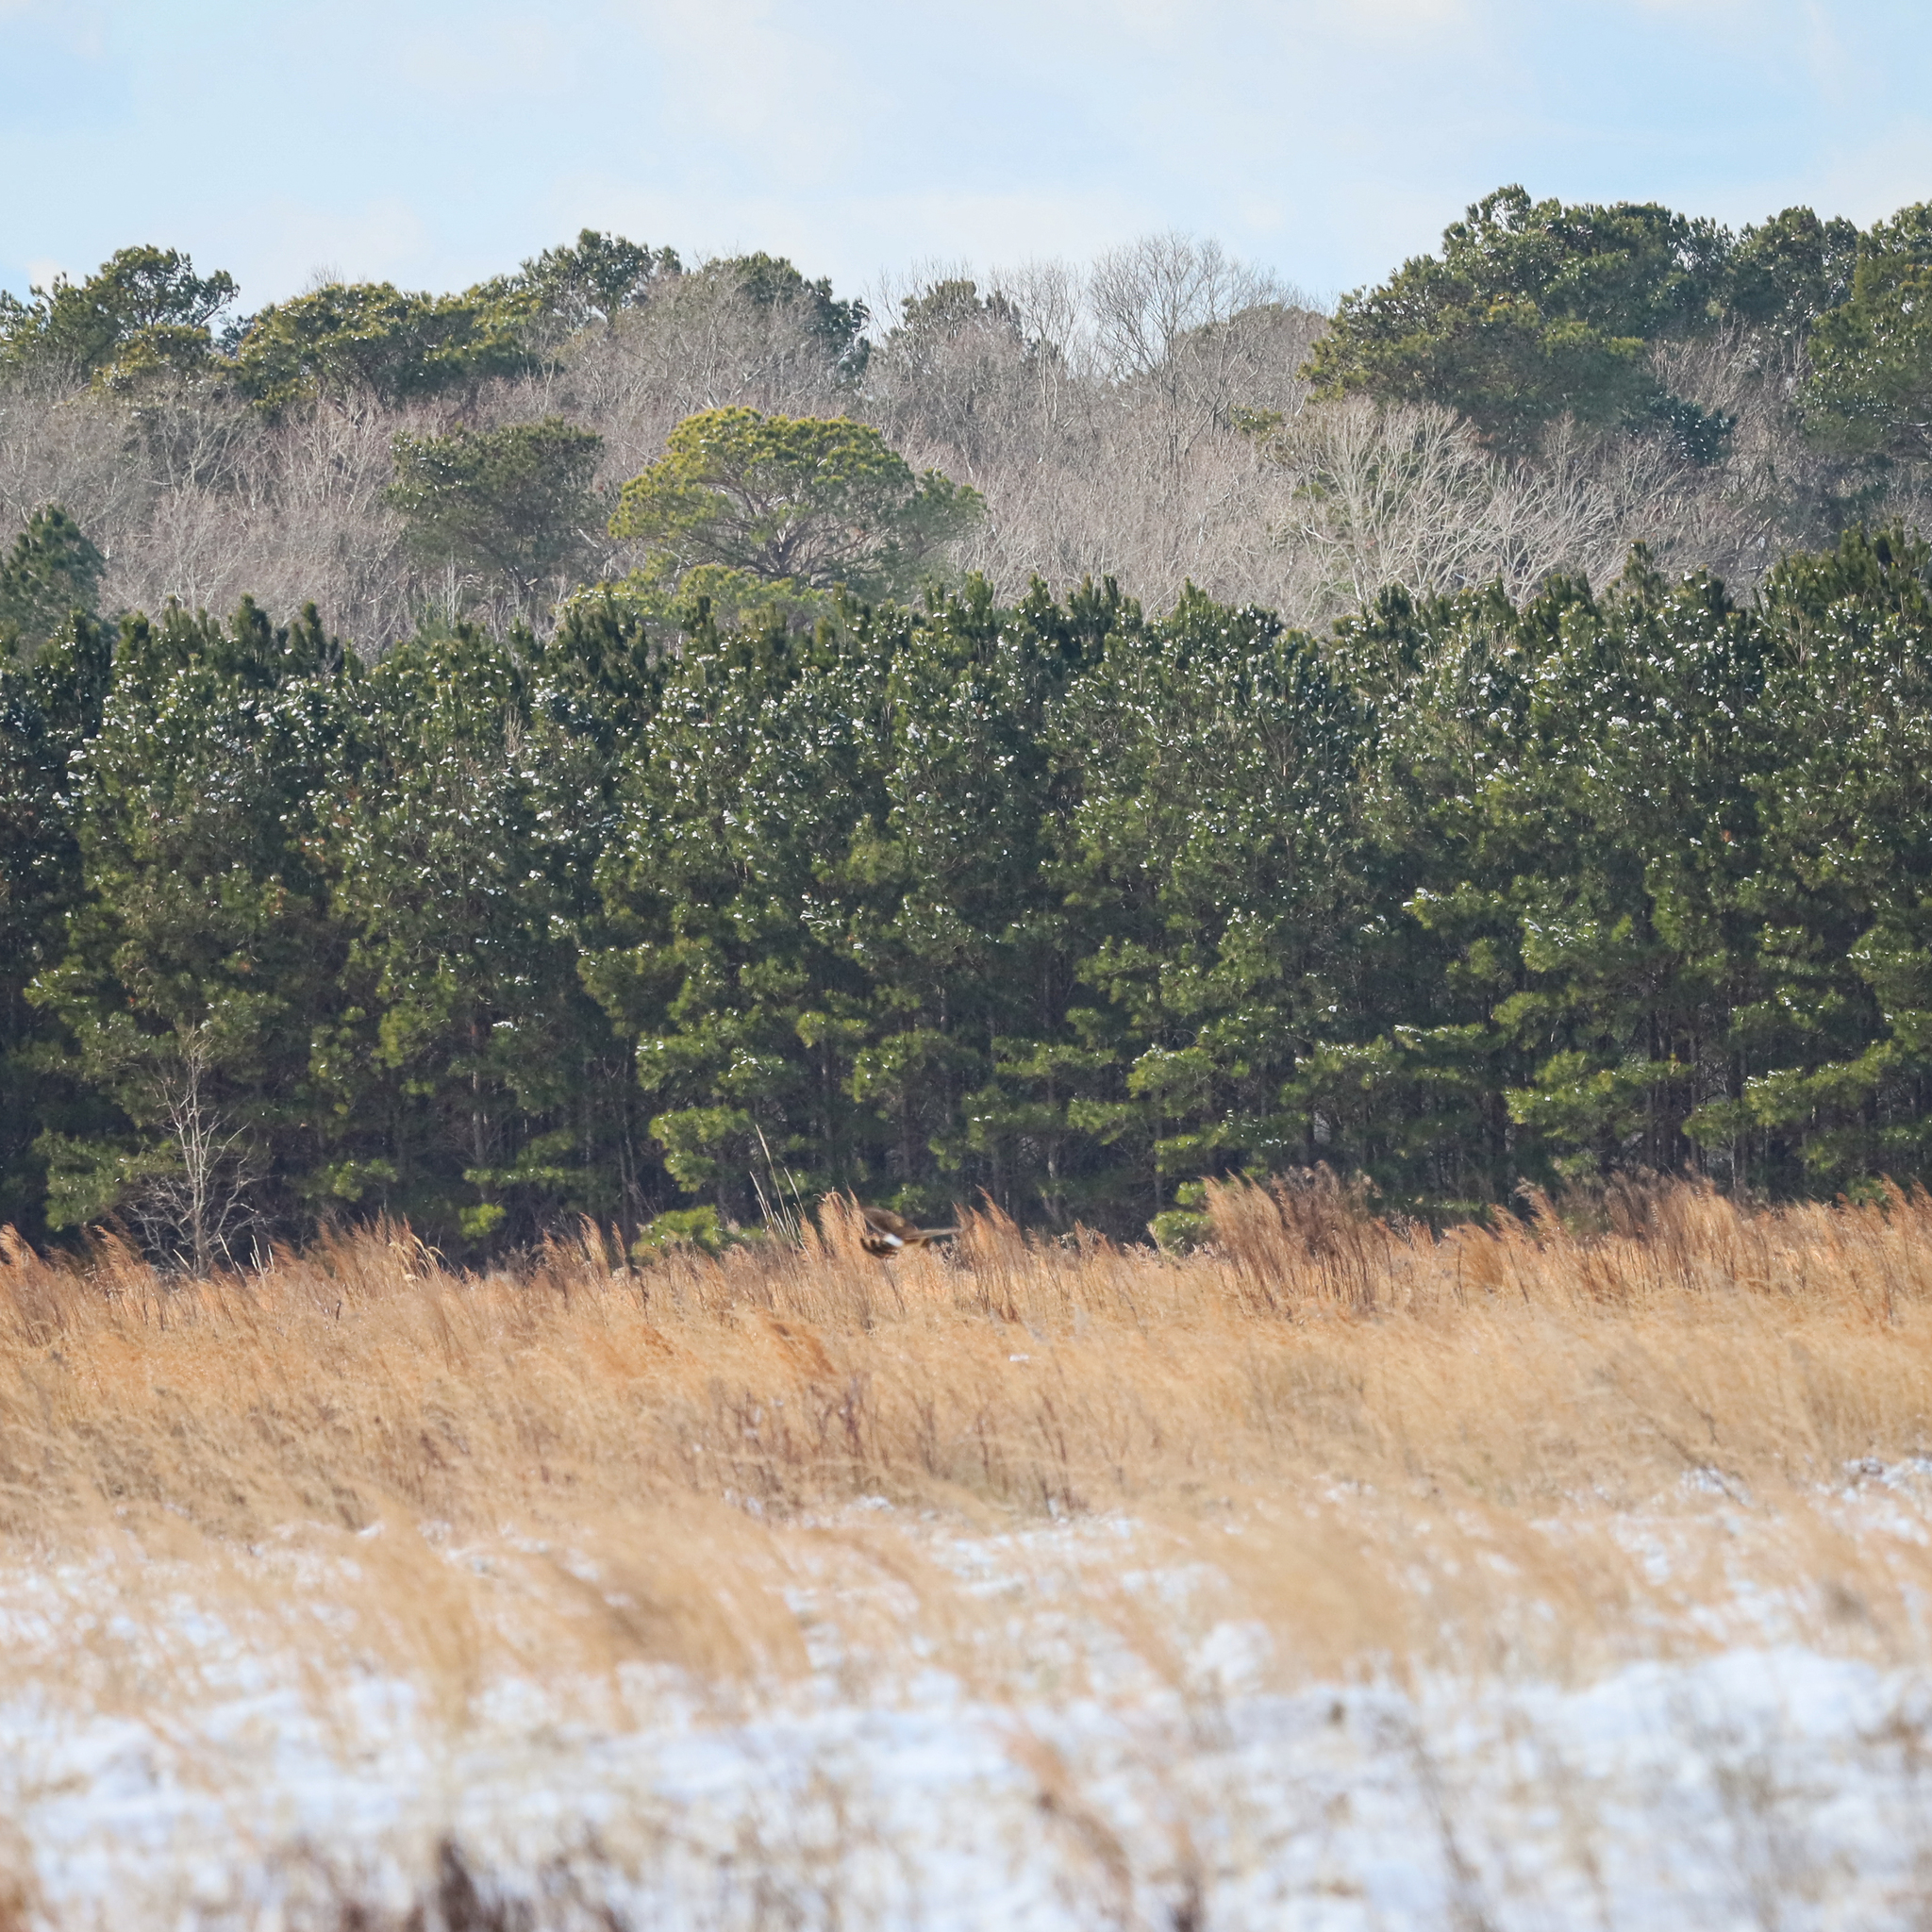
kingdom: Animalia
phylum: Chordata
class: Aves
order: Accipitriformes
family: Accipitridae
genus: Circus
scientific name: Circus cyaneus
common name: Hen harrier
